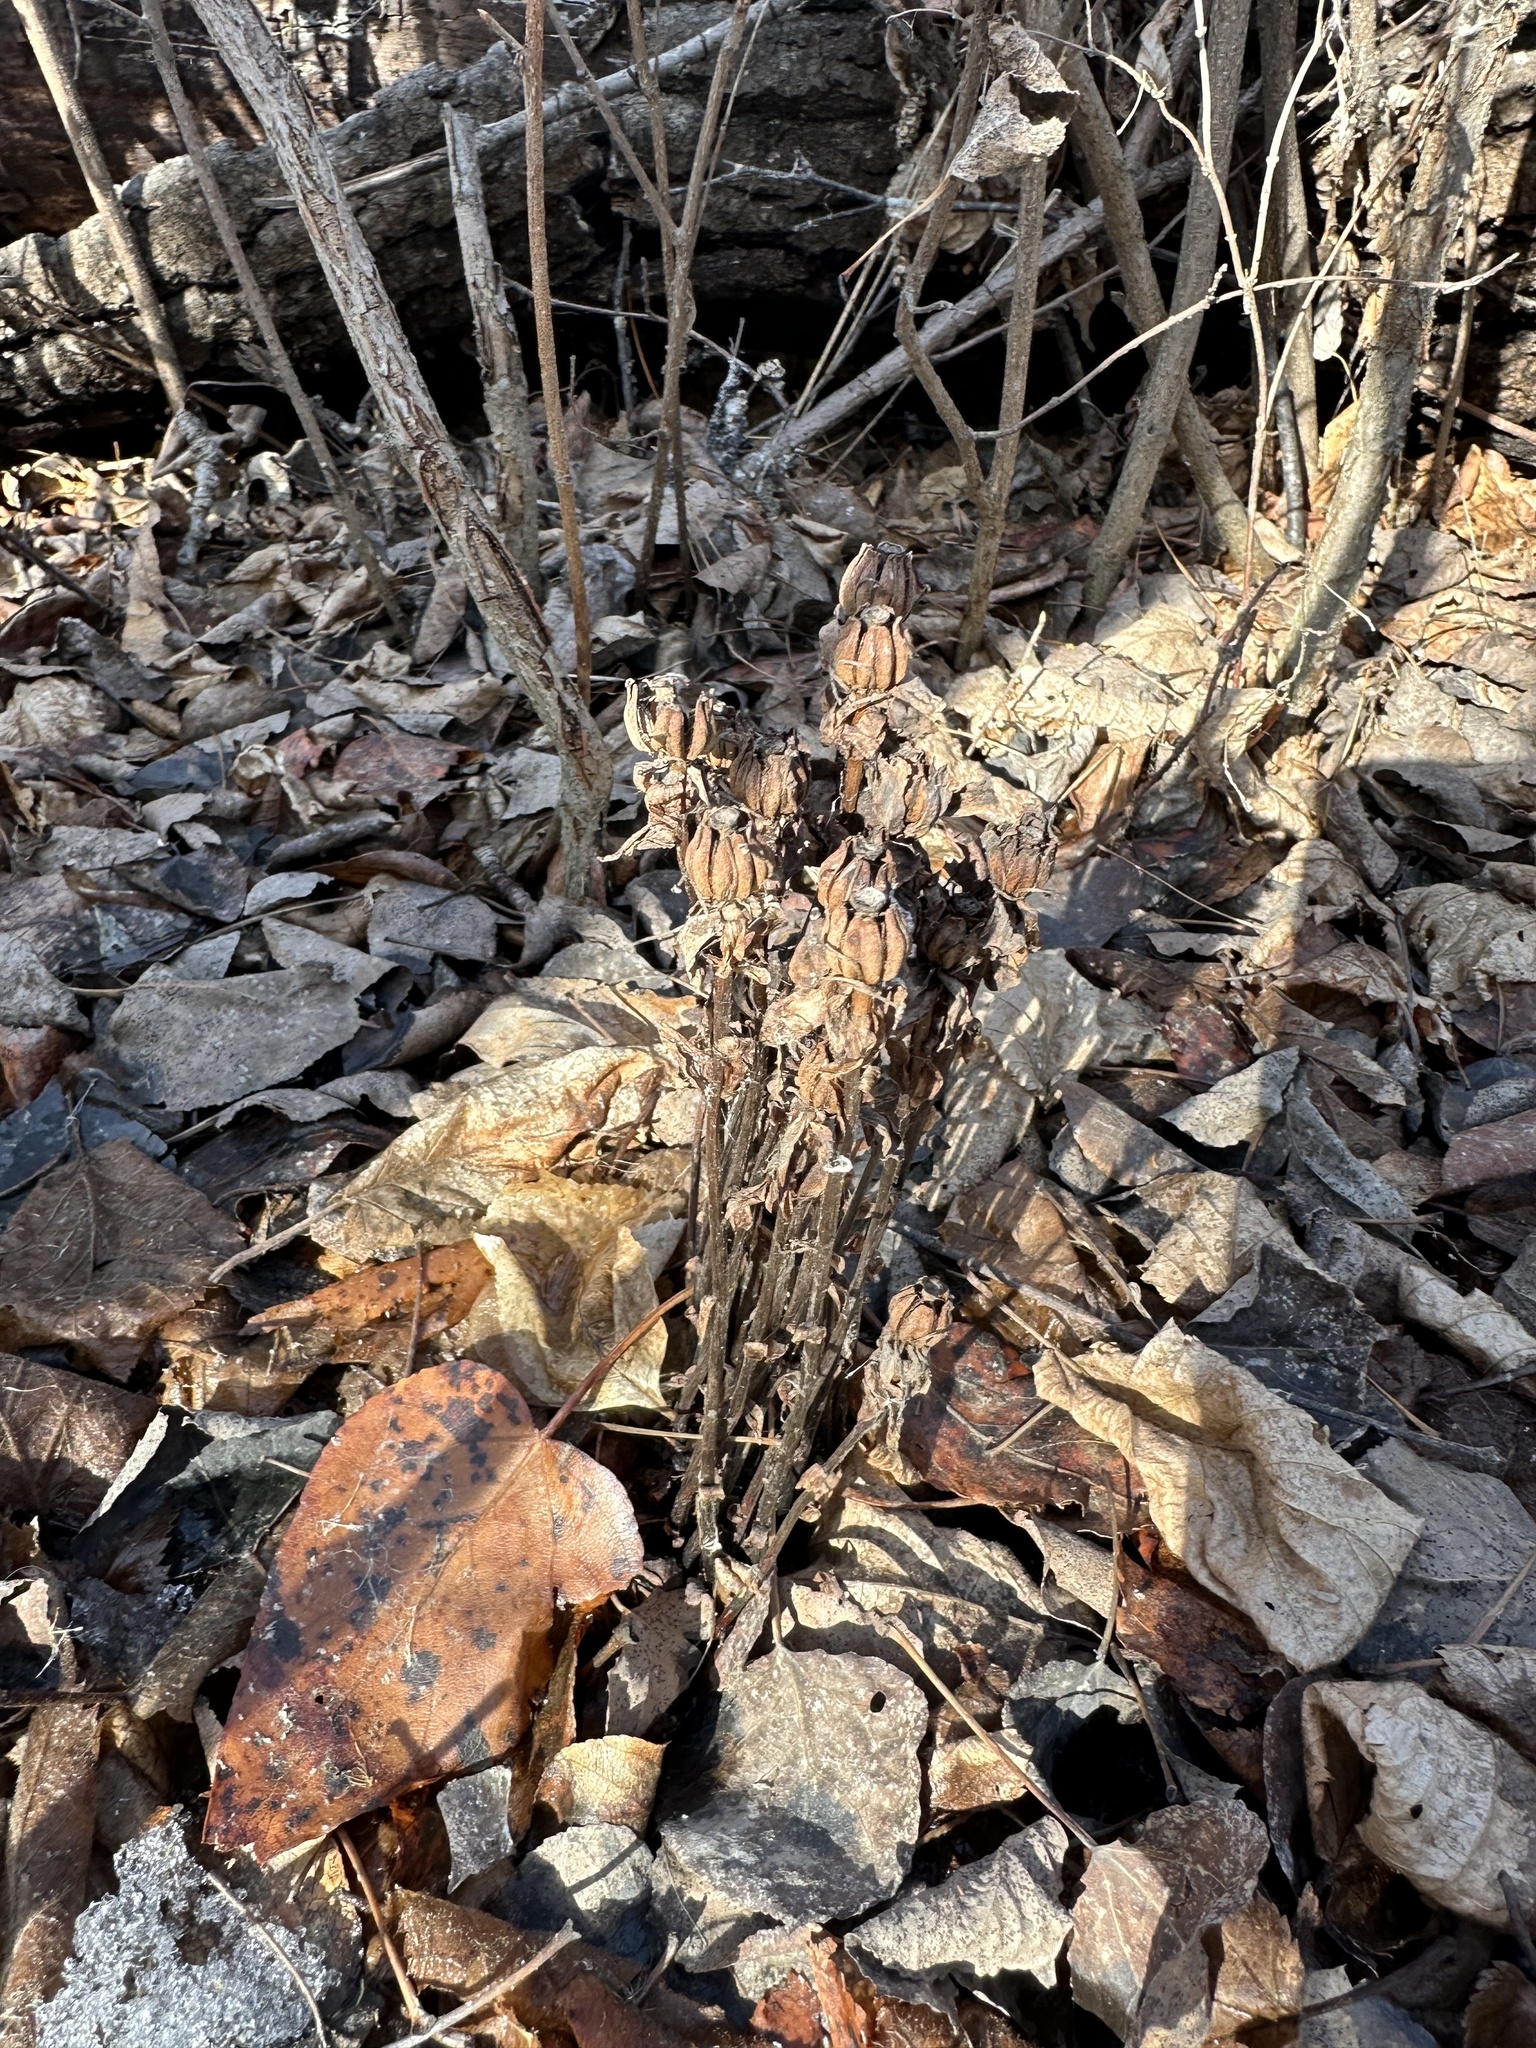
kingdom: Plantae
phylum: Tracheophyta
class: Magnoliopsida
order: Ericales
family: Ericaceae
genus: Monotropa
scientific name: Monotropa uniflora
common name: Convulsion root
